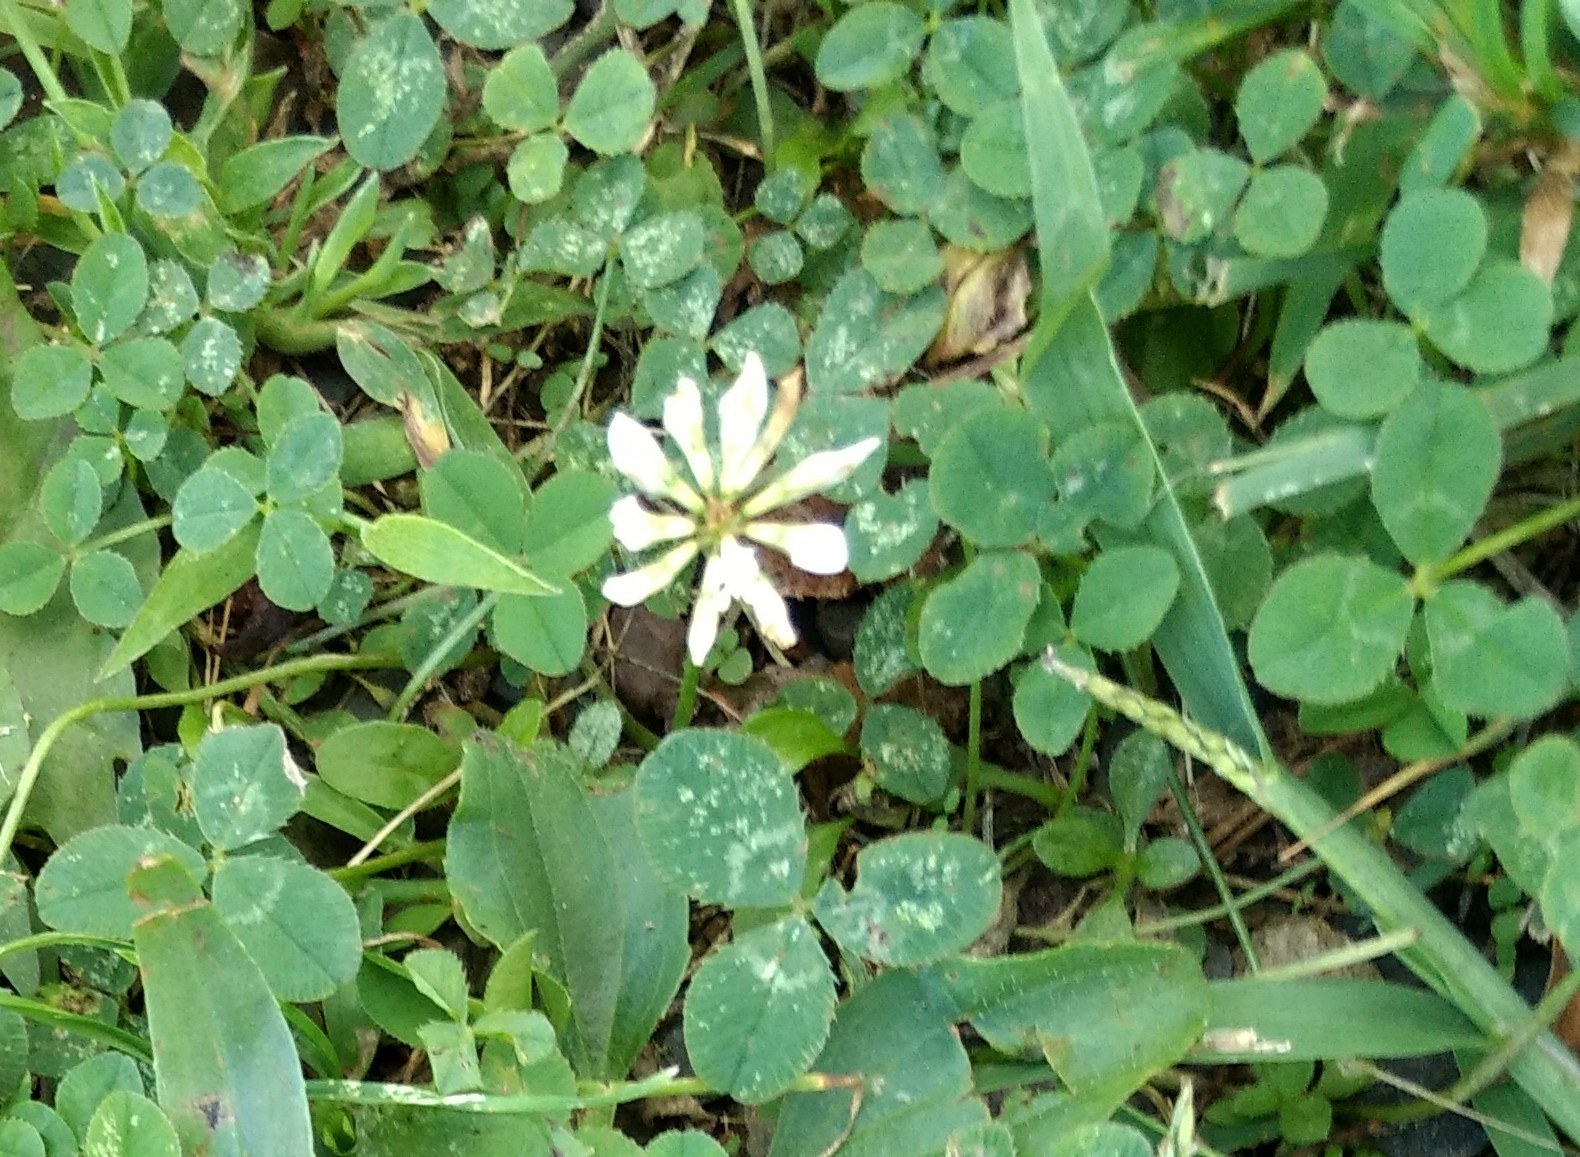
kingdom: Plantae
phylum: Tracheophyta
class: Magnoliopsida
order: Fabales
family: Fabaceae
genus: Trifolium
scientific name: Trifolium repens
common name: White clover
